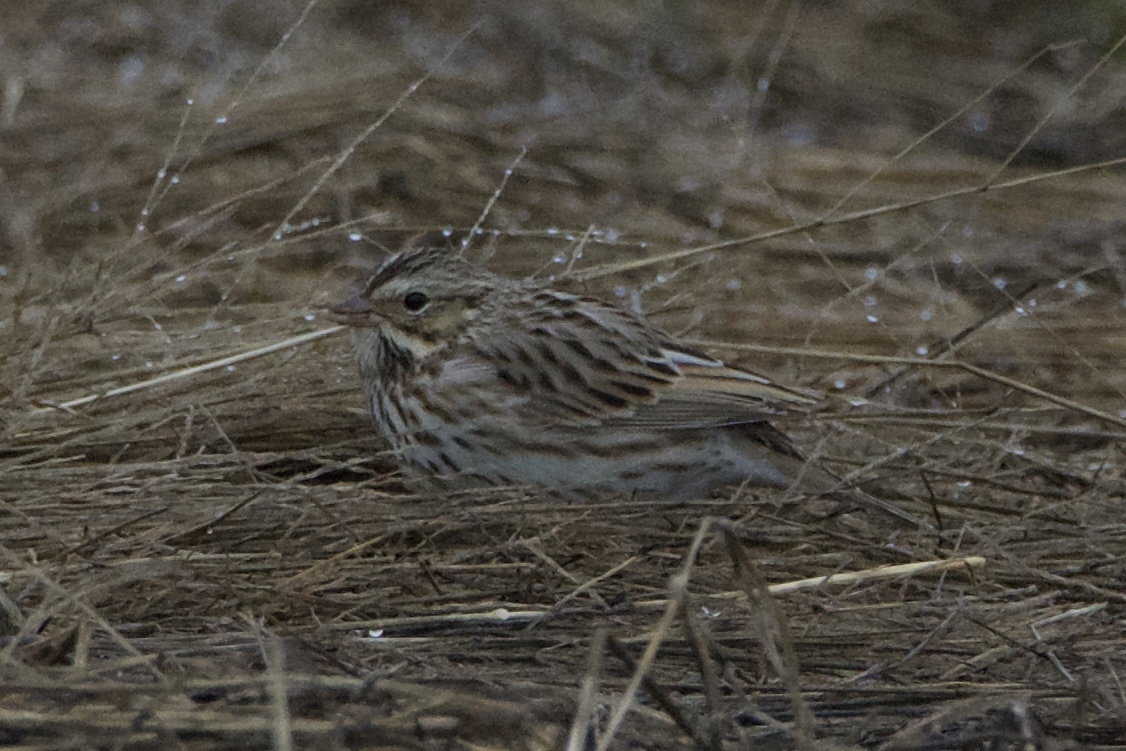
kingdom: Animalia
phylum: Chordata
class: Aves
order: Passeriformes
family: Passerellidae
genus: Passerculus
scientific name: Passerculus sandwichensis
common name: Savannah sparrow
